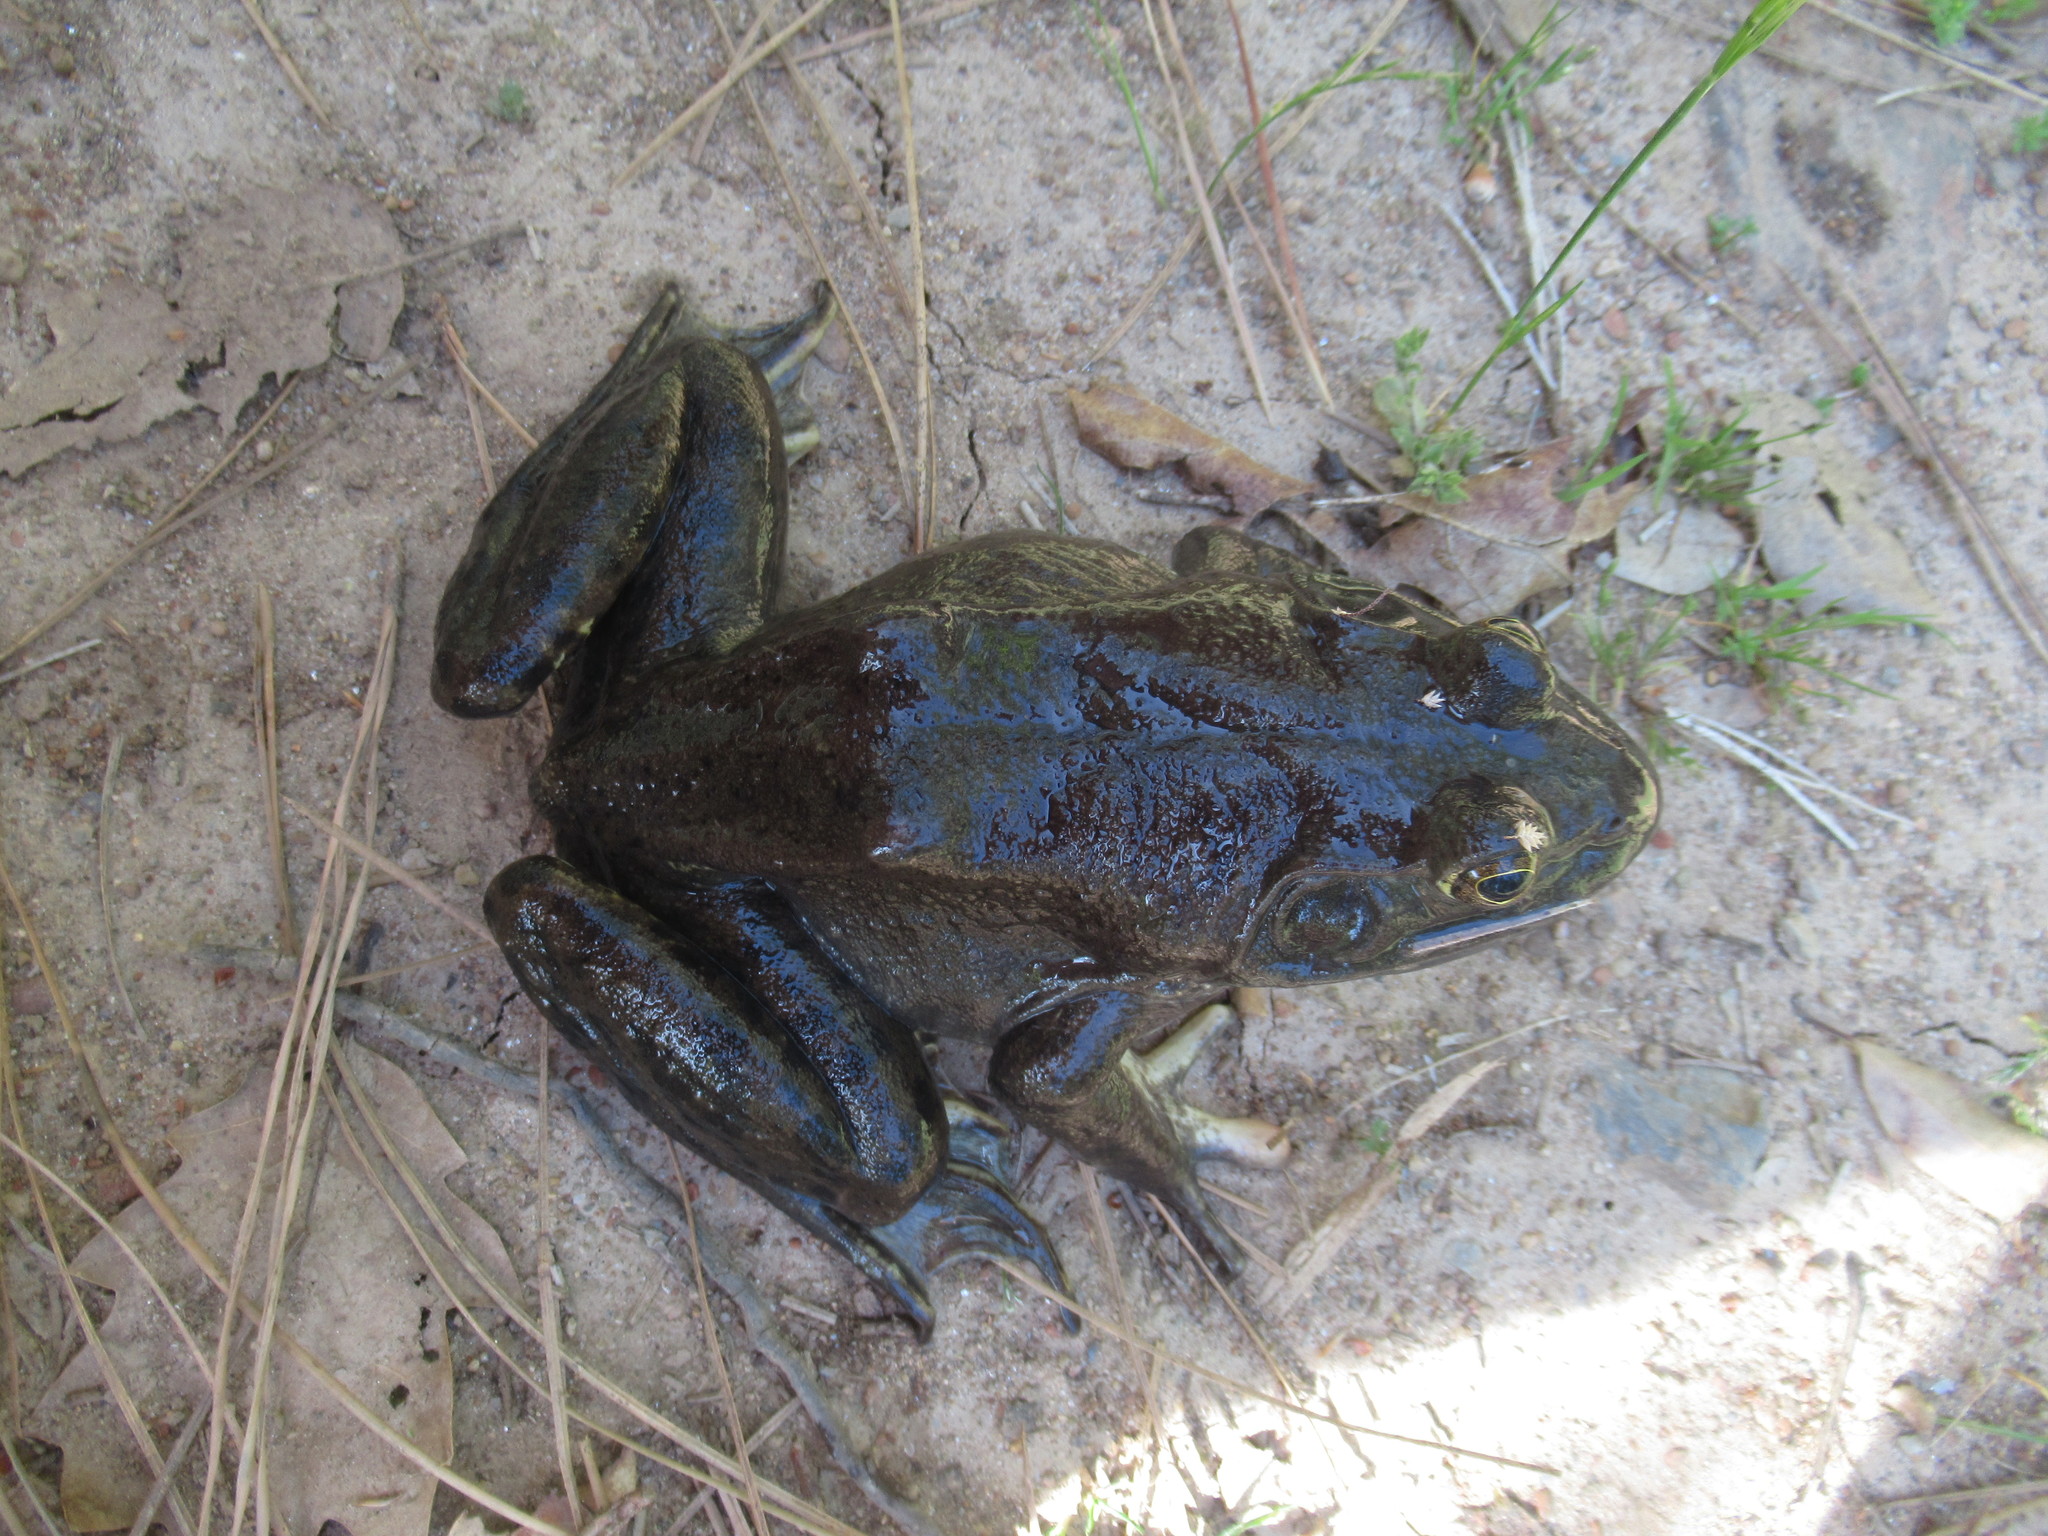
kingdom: Animalia
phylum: Chordata
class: Amphibia
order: Anura
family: Ranidae
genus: Lithobates
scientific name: Lithobates catesbeianus
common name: American bullfrog
